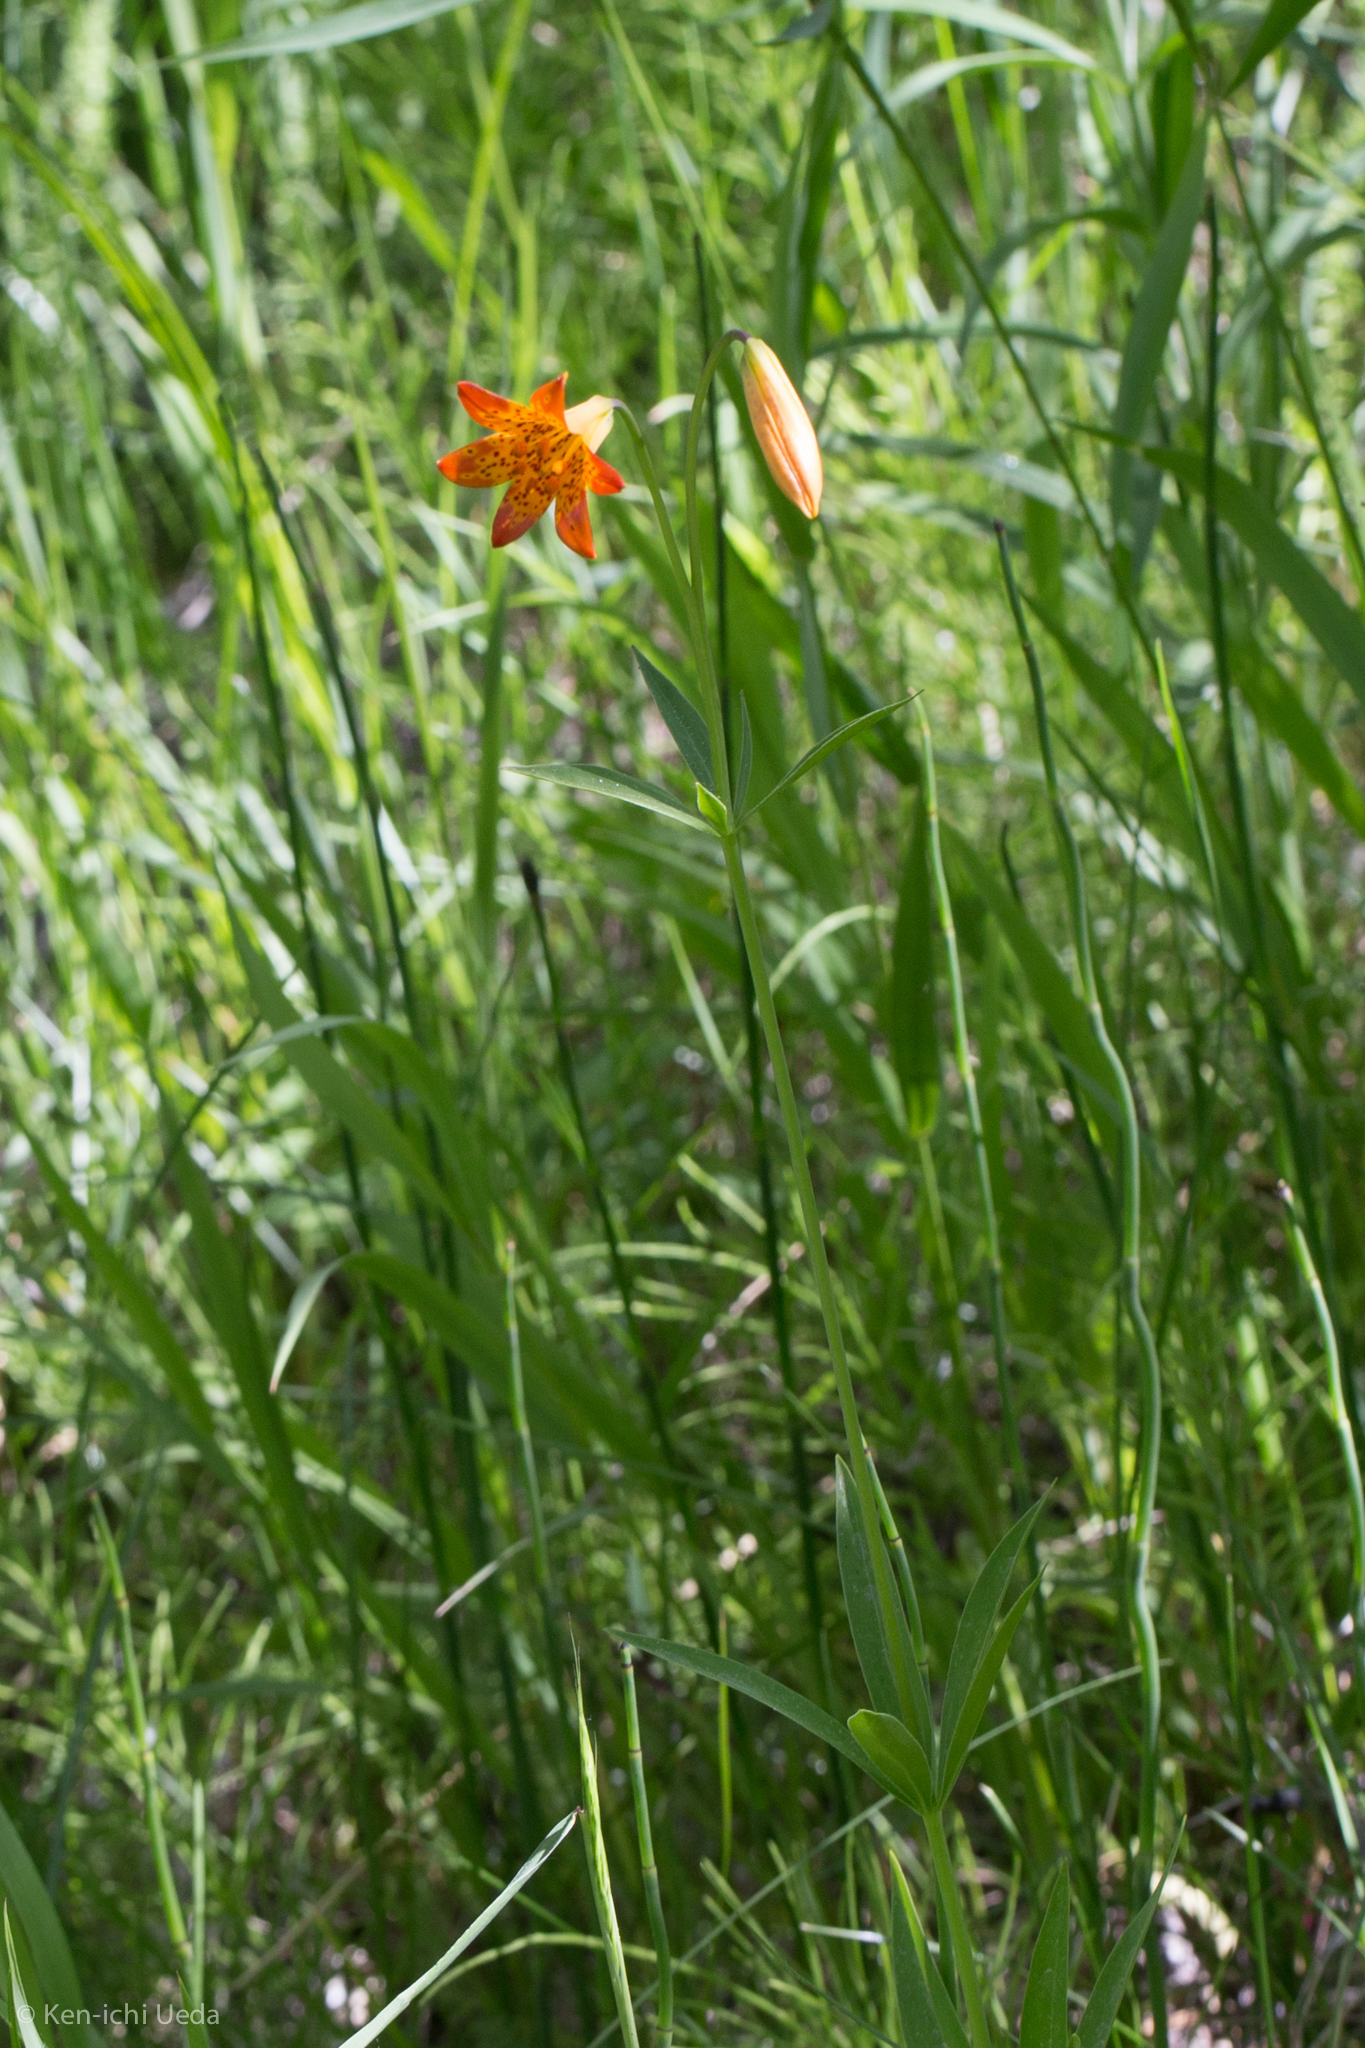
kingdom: Plantae
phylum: Tracheophyta
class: Liliopsida
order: Liliales
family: Liliaceae
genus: Lilium
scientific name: Lilium parvum
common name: Alpine lily
